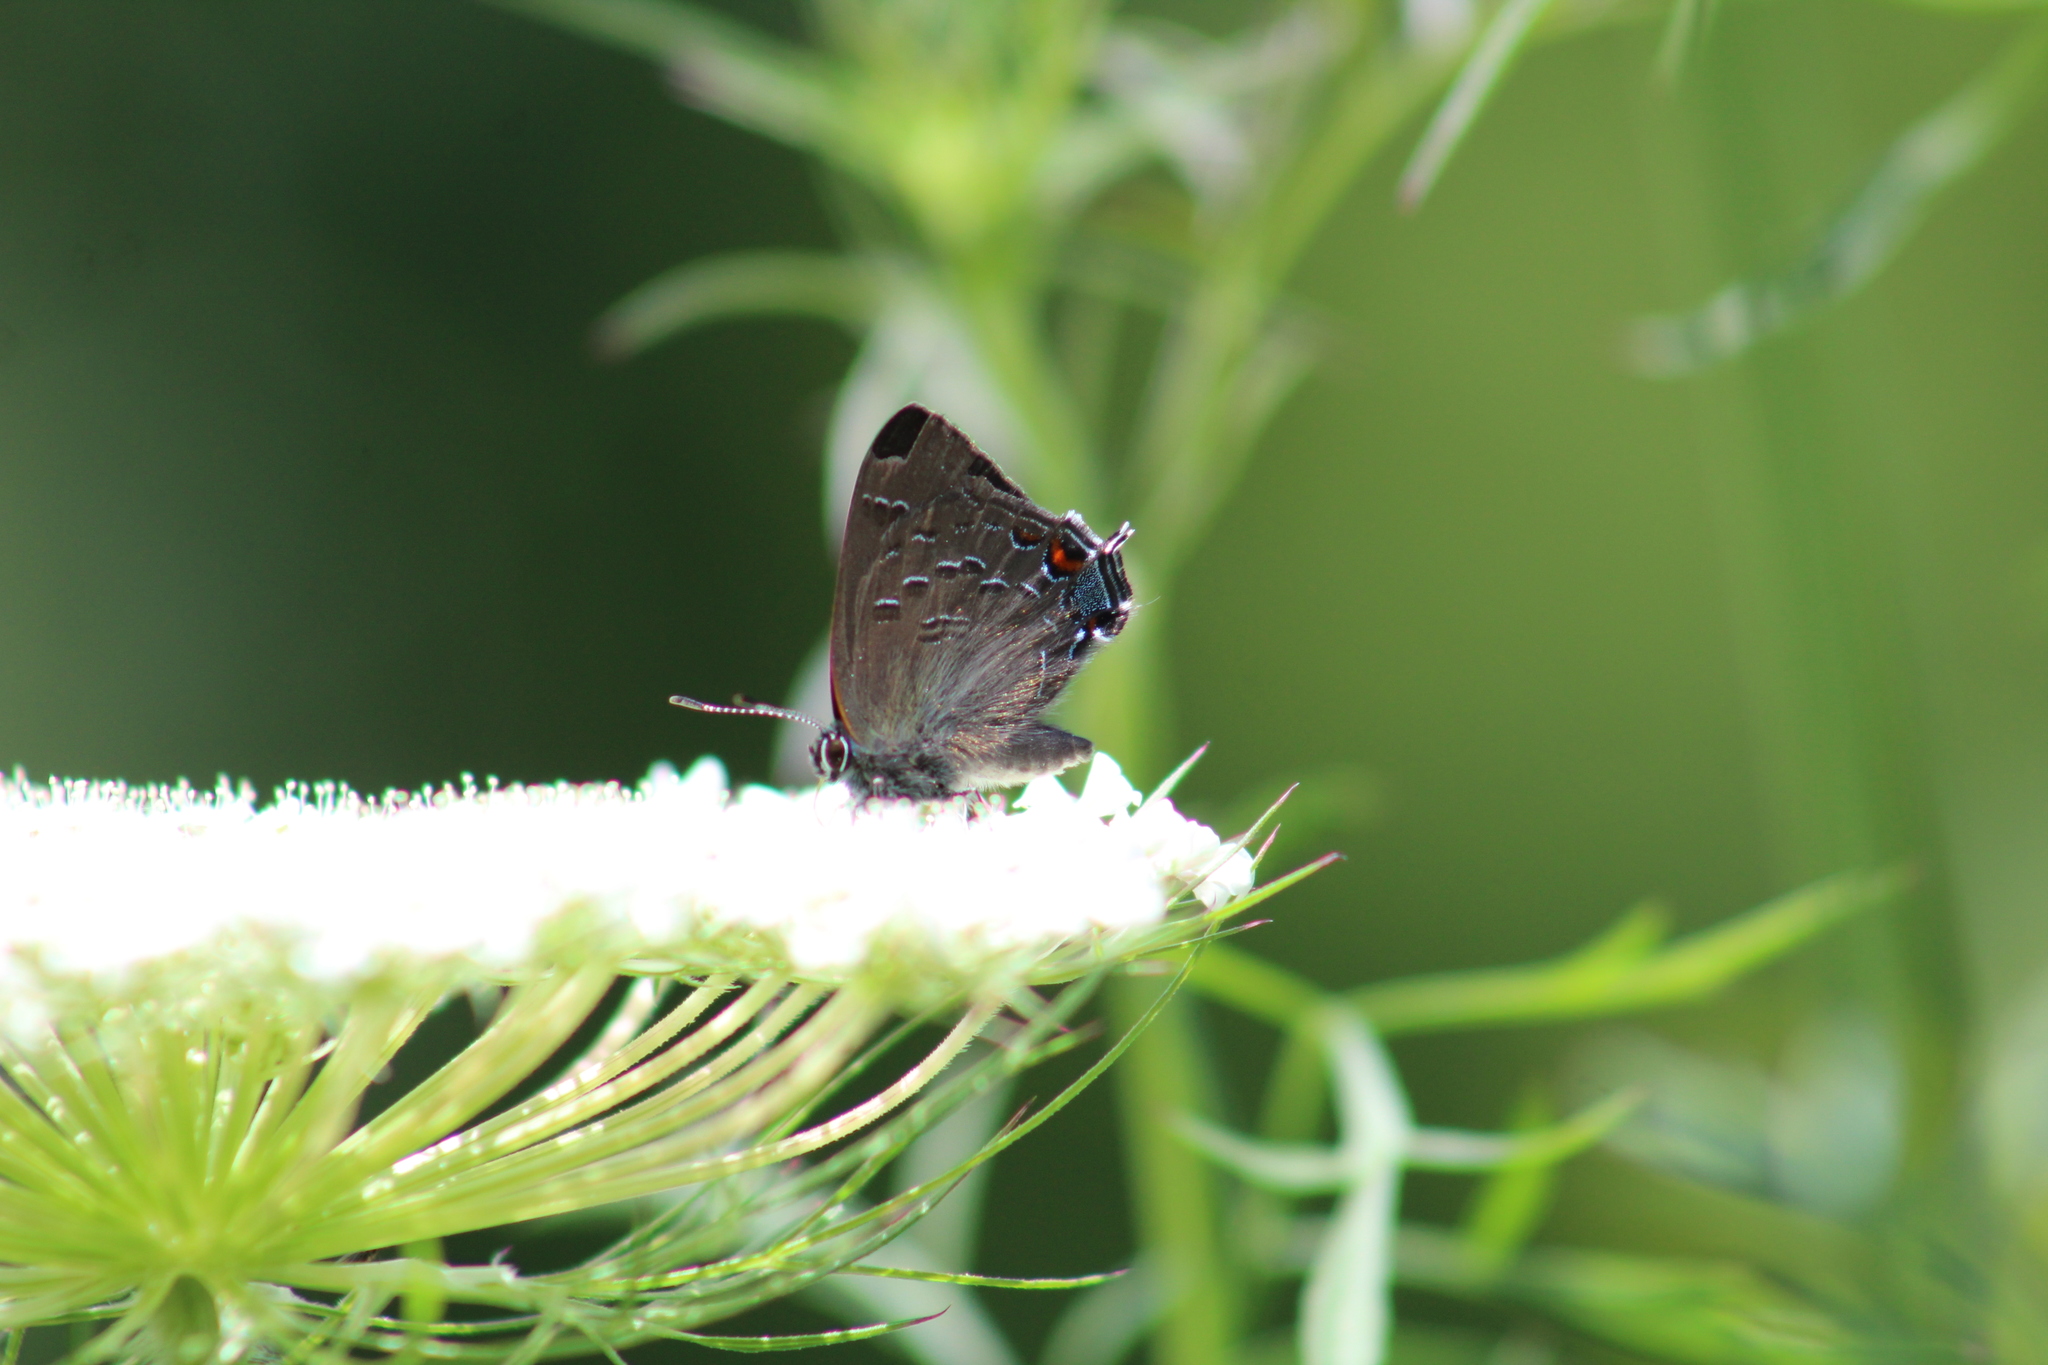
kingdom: Animalia
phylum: Arthropoda
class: Insecta
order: Lepidoptera
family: Lycaenidae
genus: Satyrium
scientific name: Satyrium calanus
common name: Banded hairstreak
